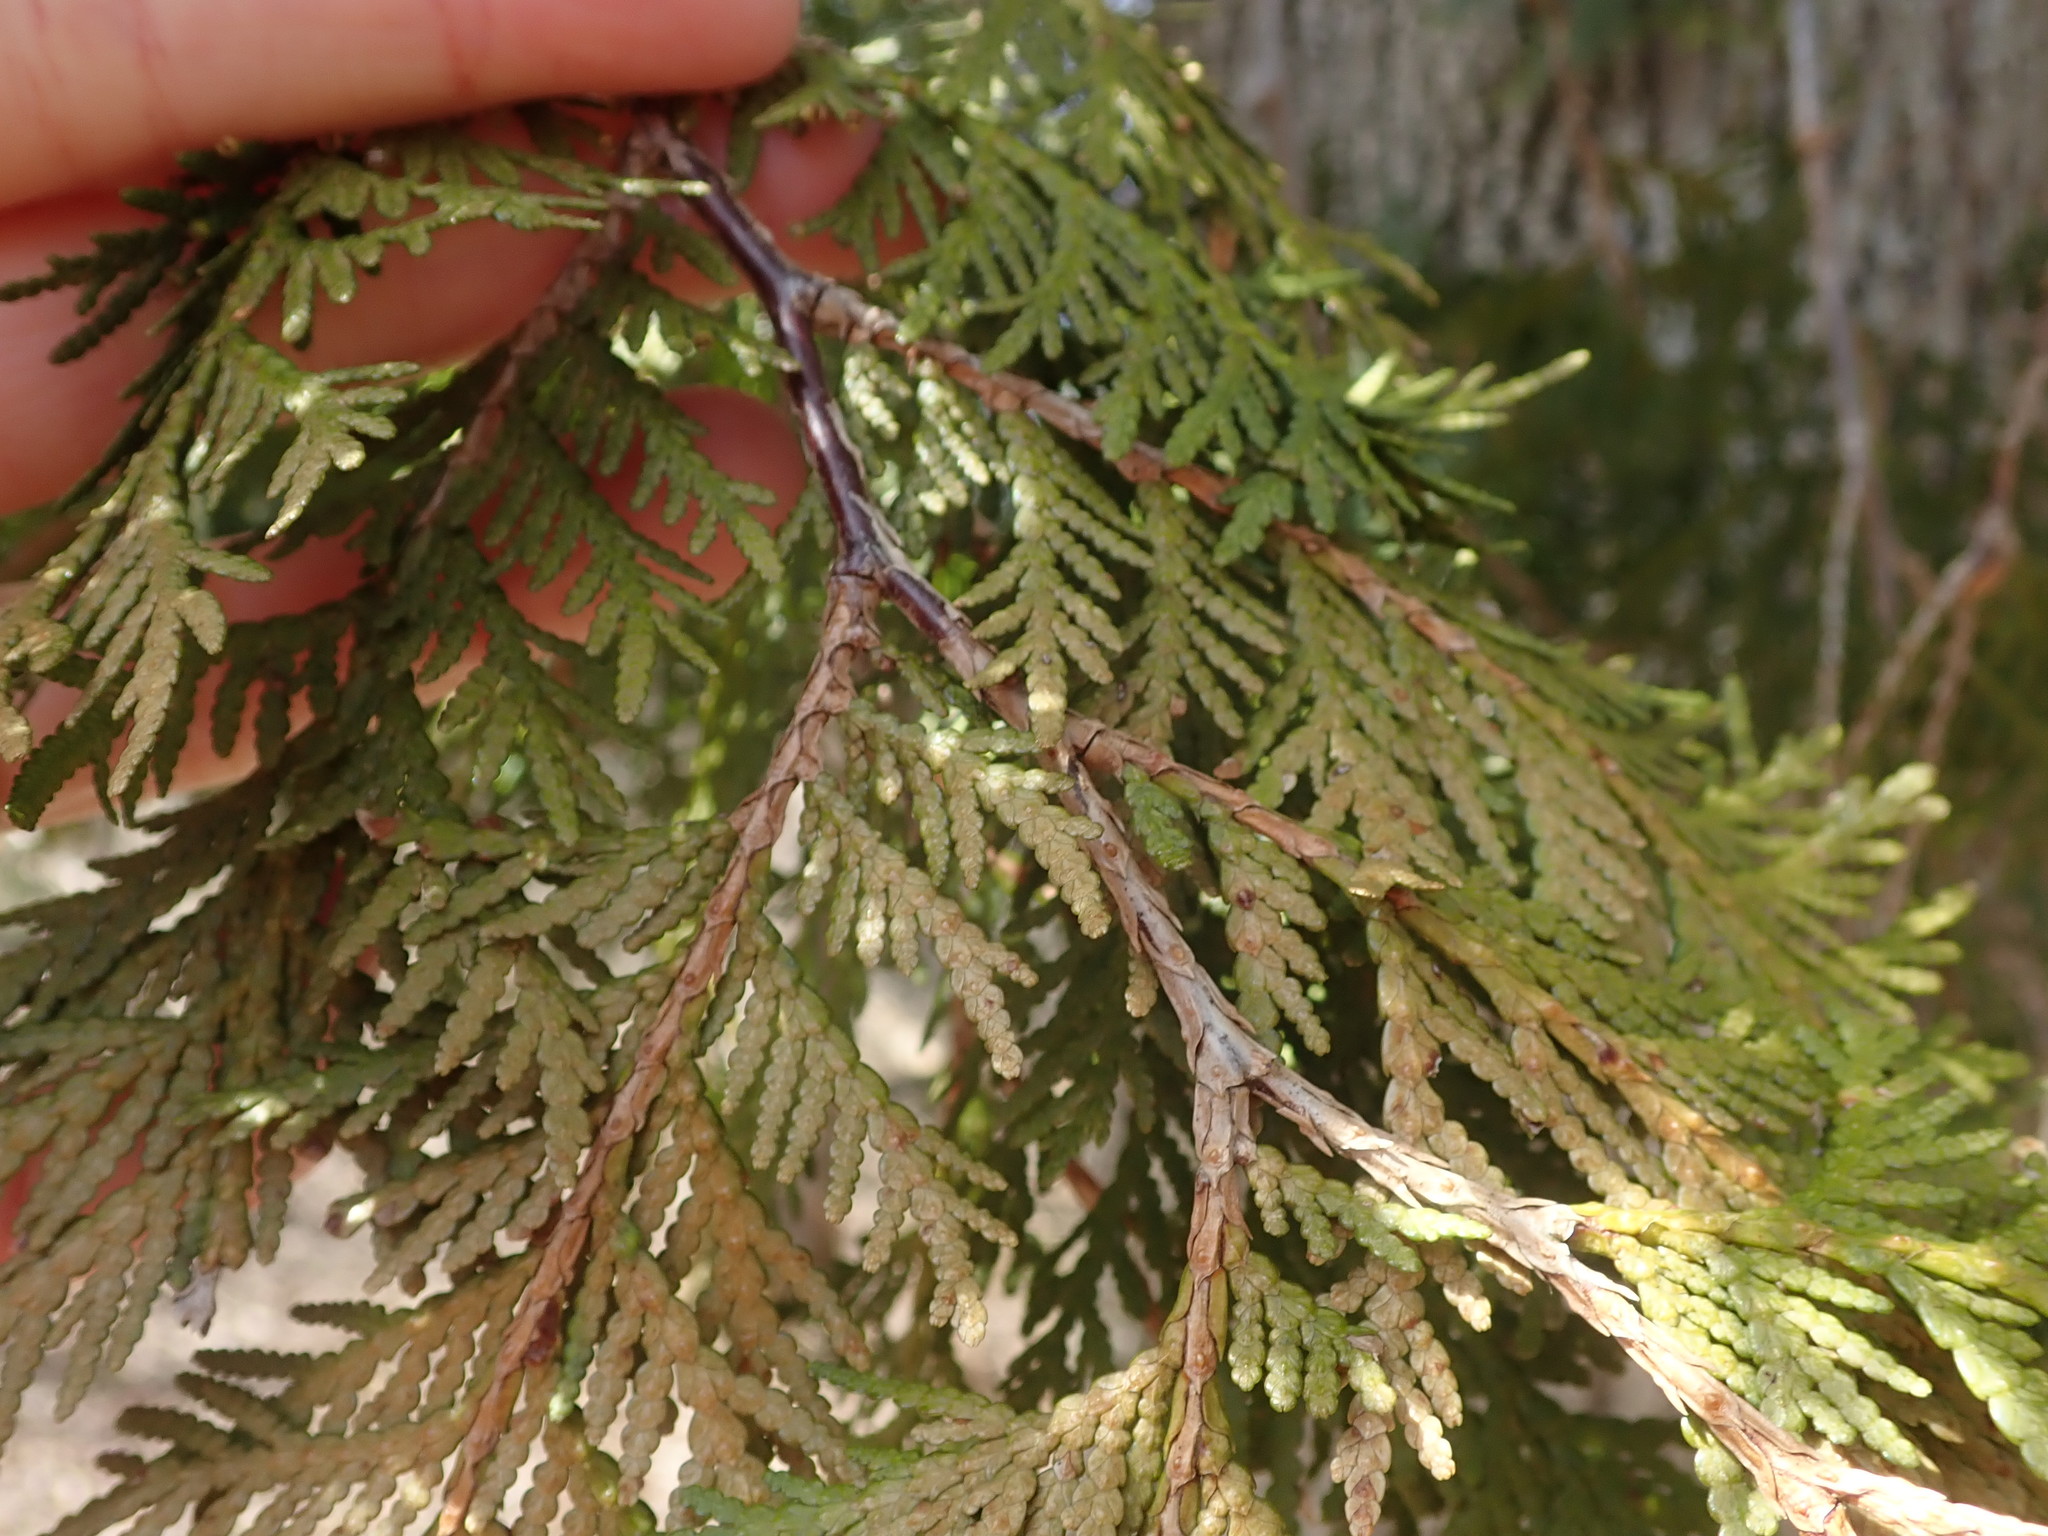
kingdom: Plantae
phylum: Tracheophyta
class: Pinopsida
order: Pinales
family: Cupressaceae
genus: Thuja
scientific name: Thuja occidentalis
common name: Northern white-cedar
